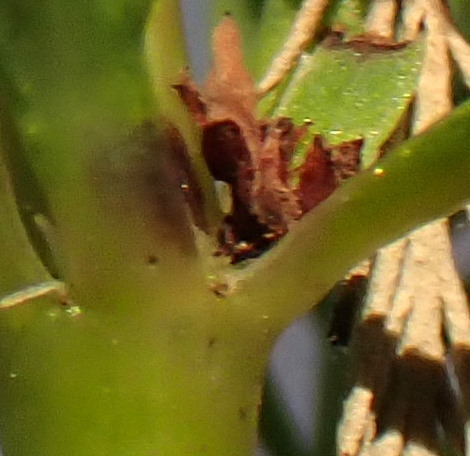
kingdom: Plantae
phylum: Tracheophyta
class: Magnoliopsida
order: Saxifragales
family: Haloragaceae
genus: Myriophyllum
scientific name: Myriophyllum aquaticum
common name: Parrot's feather
